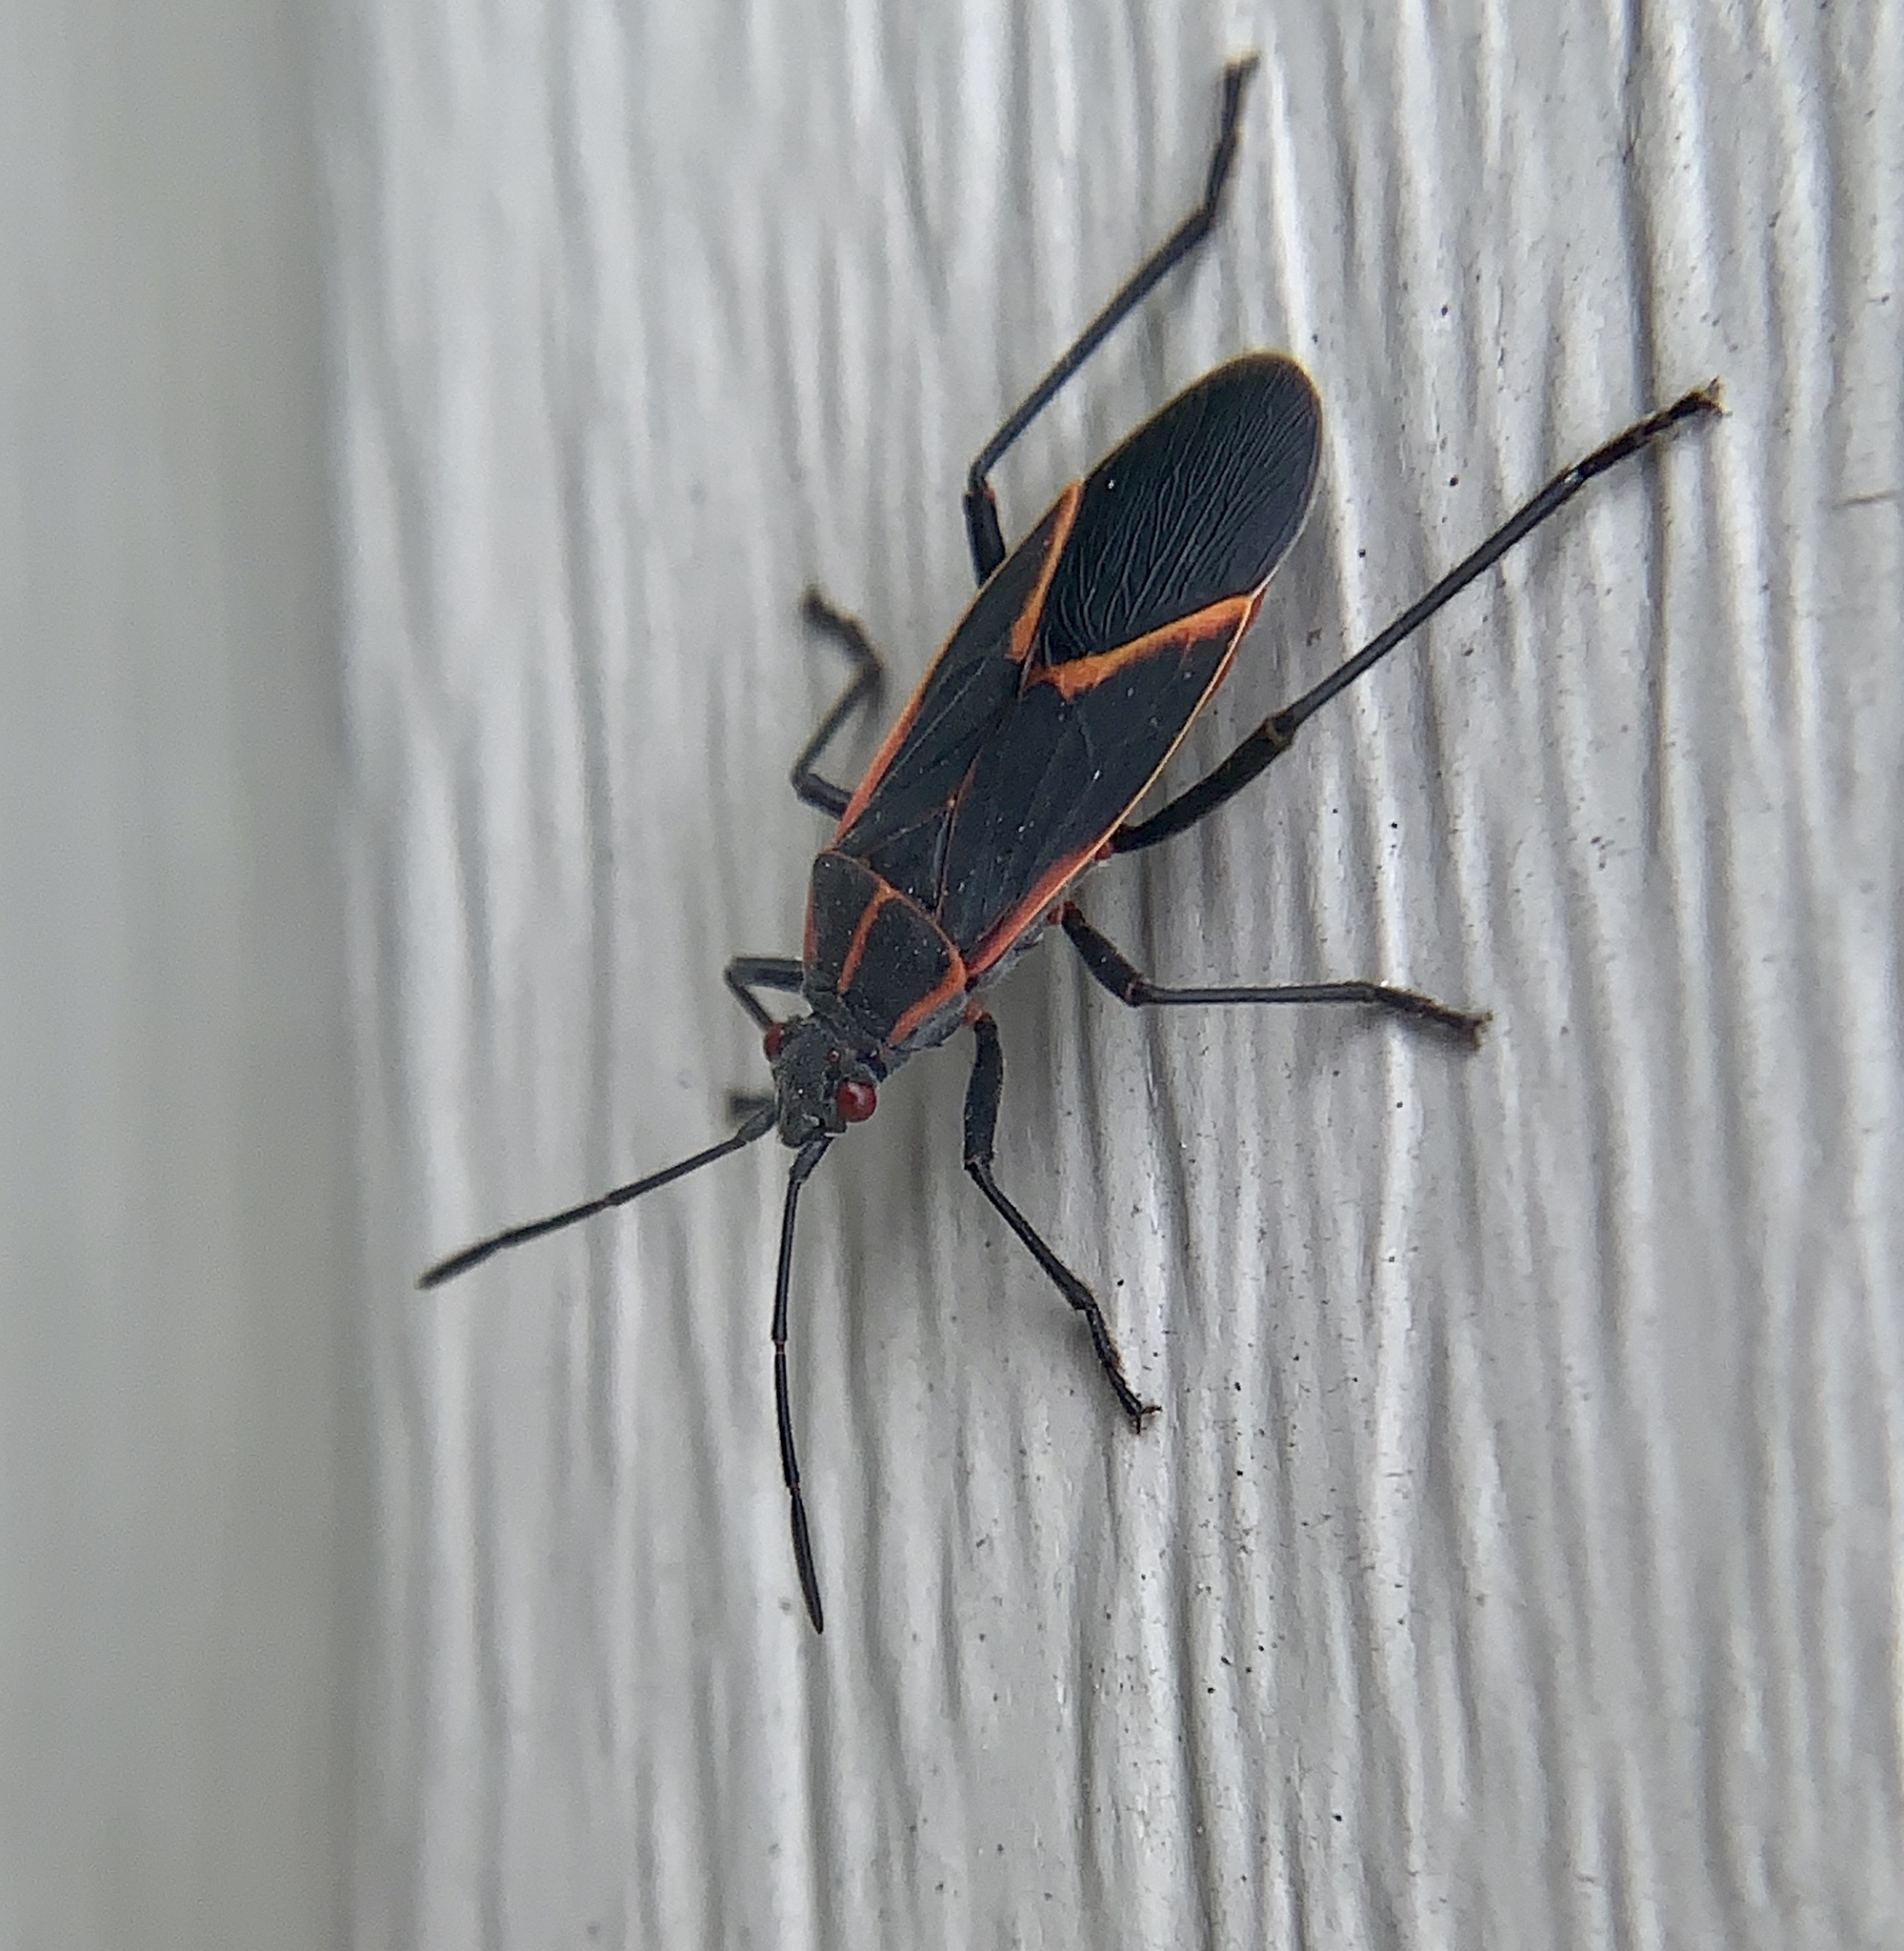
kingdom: Animalia
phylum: Arthropoda
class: Insecta
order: Hemiptera
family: Rhopalidae
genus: Boisea
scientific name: Boisea trivittata
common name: Boxelder bug
